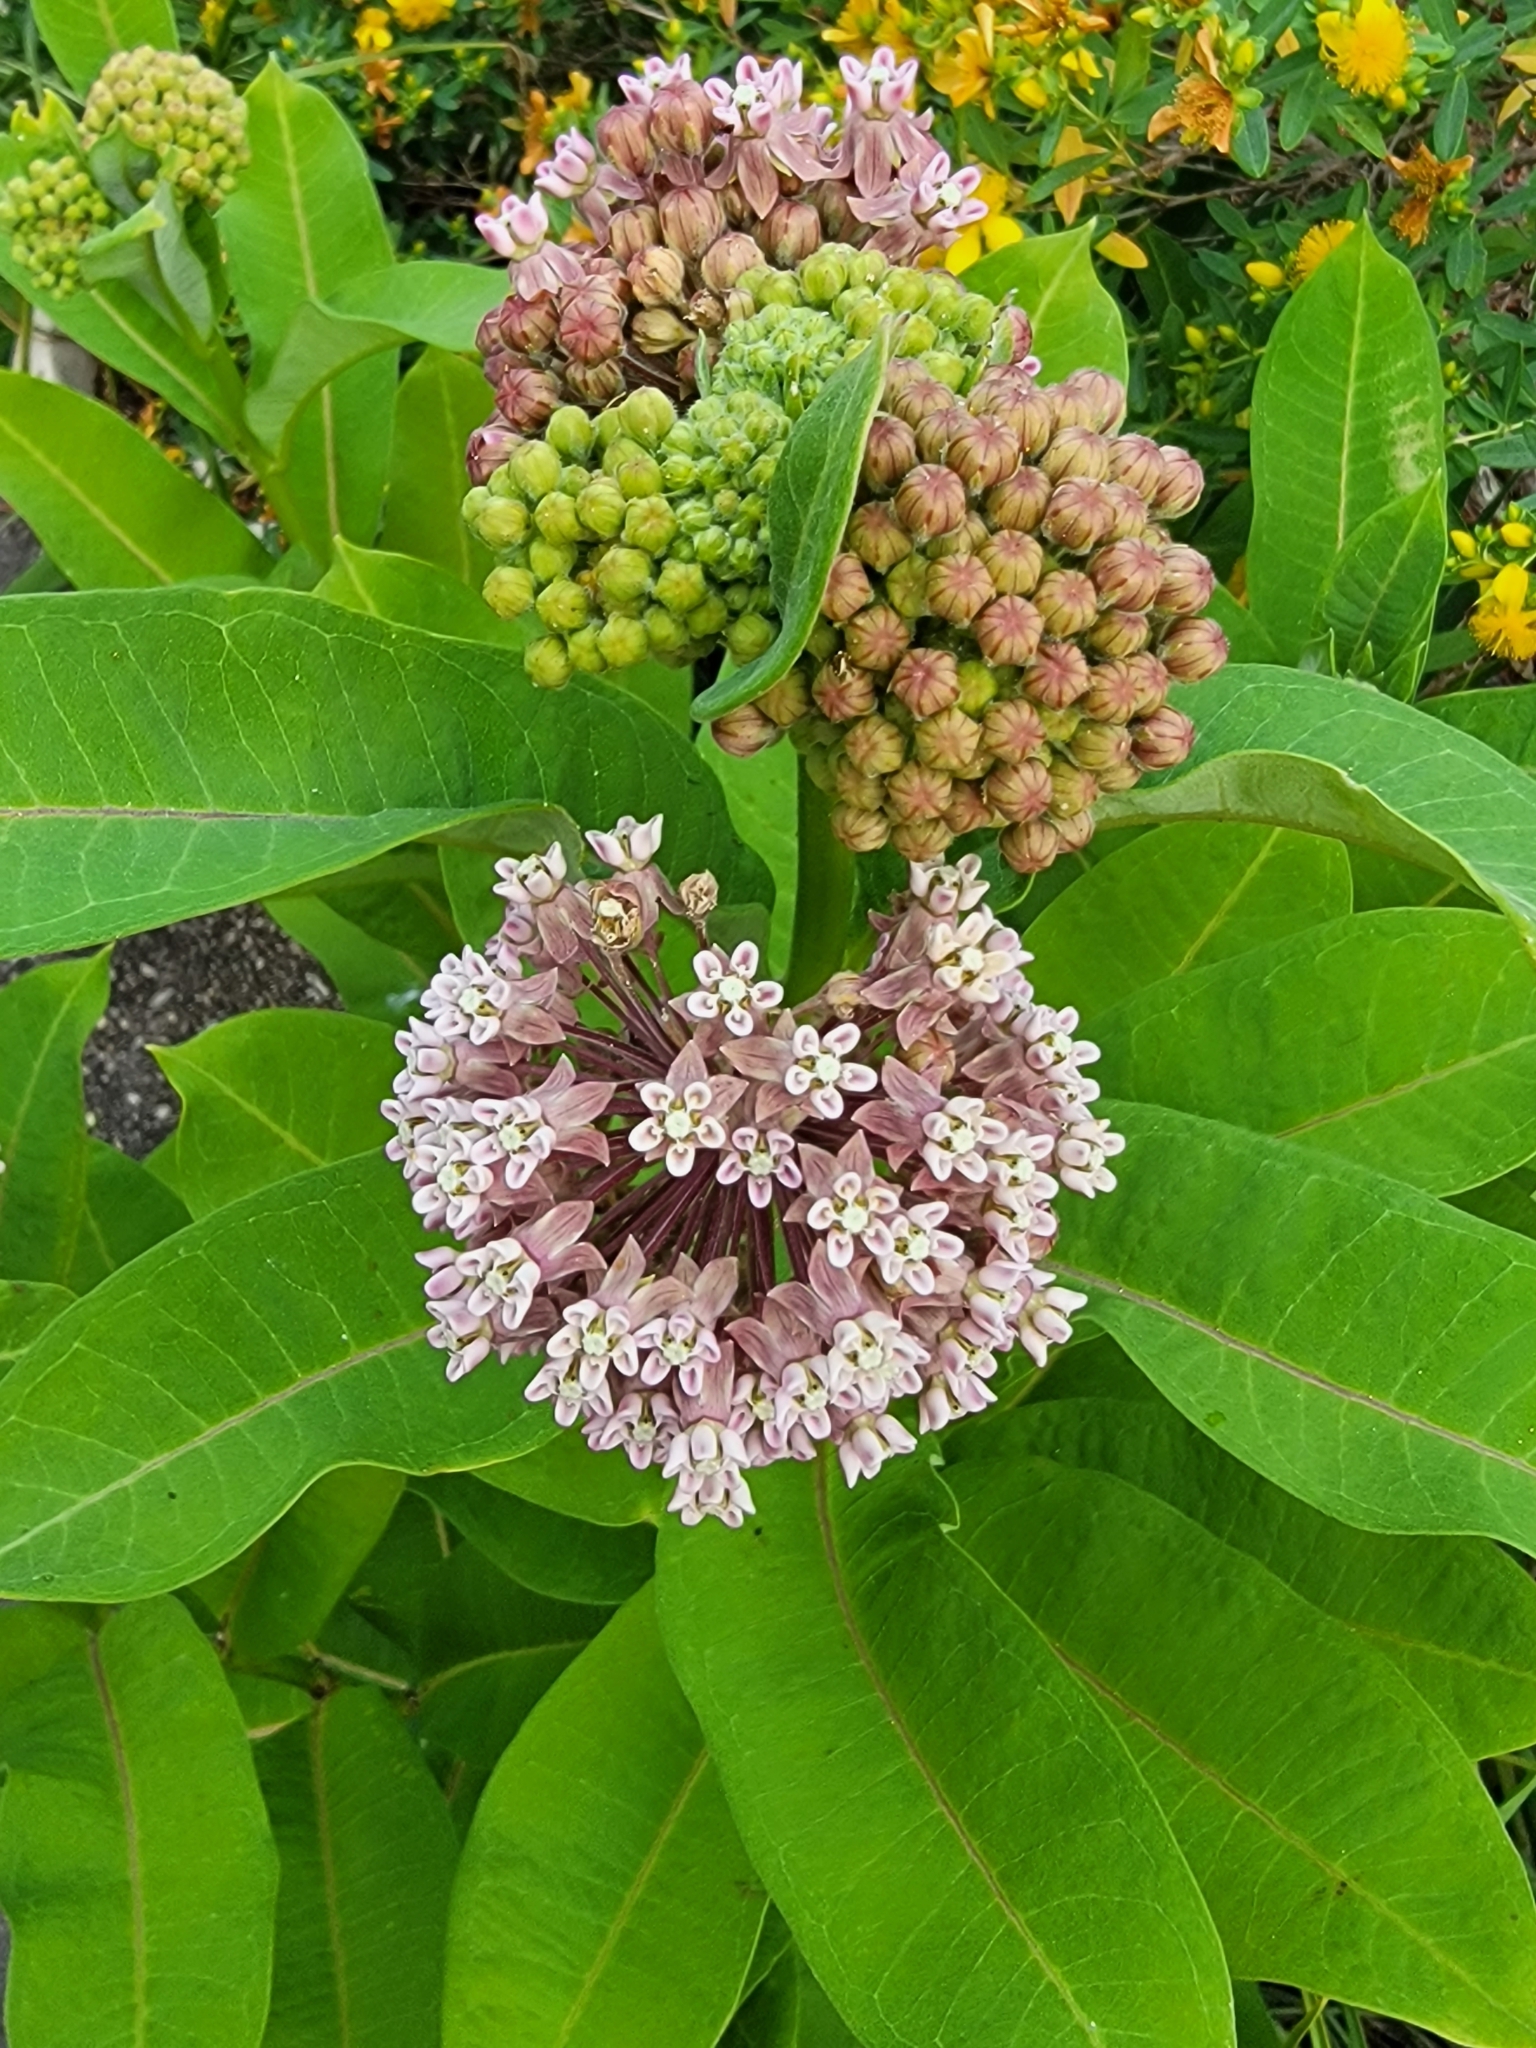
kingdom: Plantae
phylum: Tracheophyta
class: Magnoliopsida
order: Gentianales
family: Apocynaceae
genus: Asclepias
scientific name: Asclepias syriaca
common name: Common milkweed
